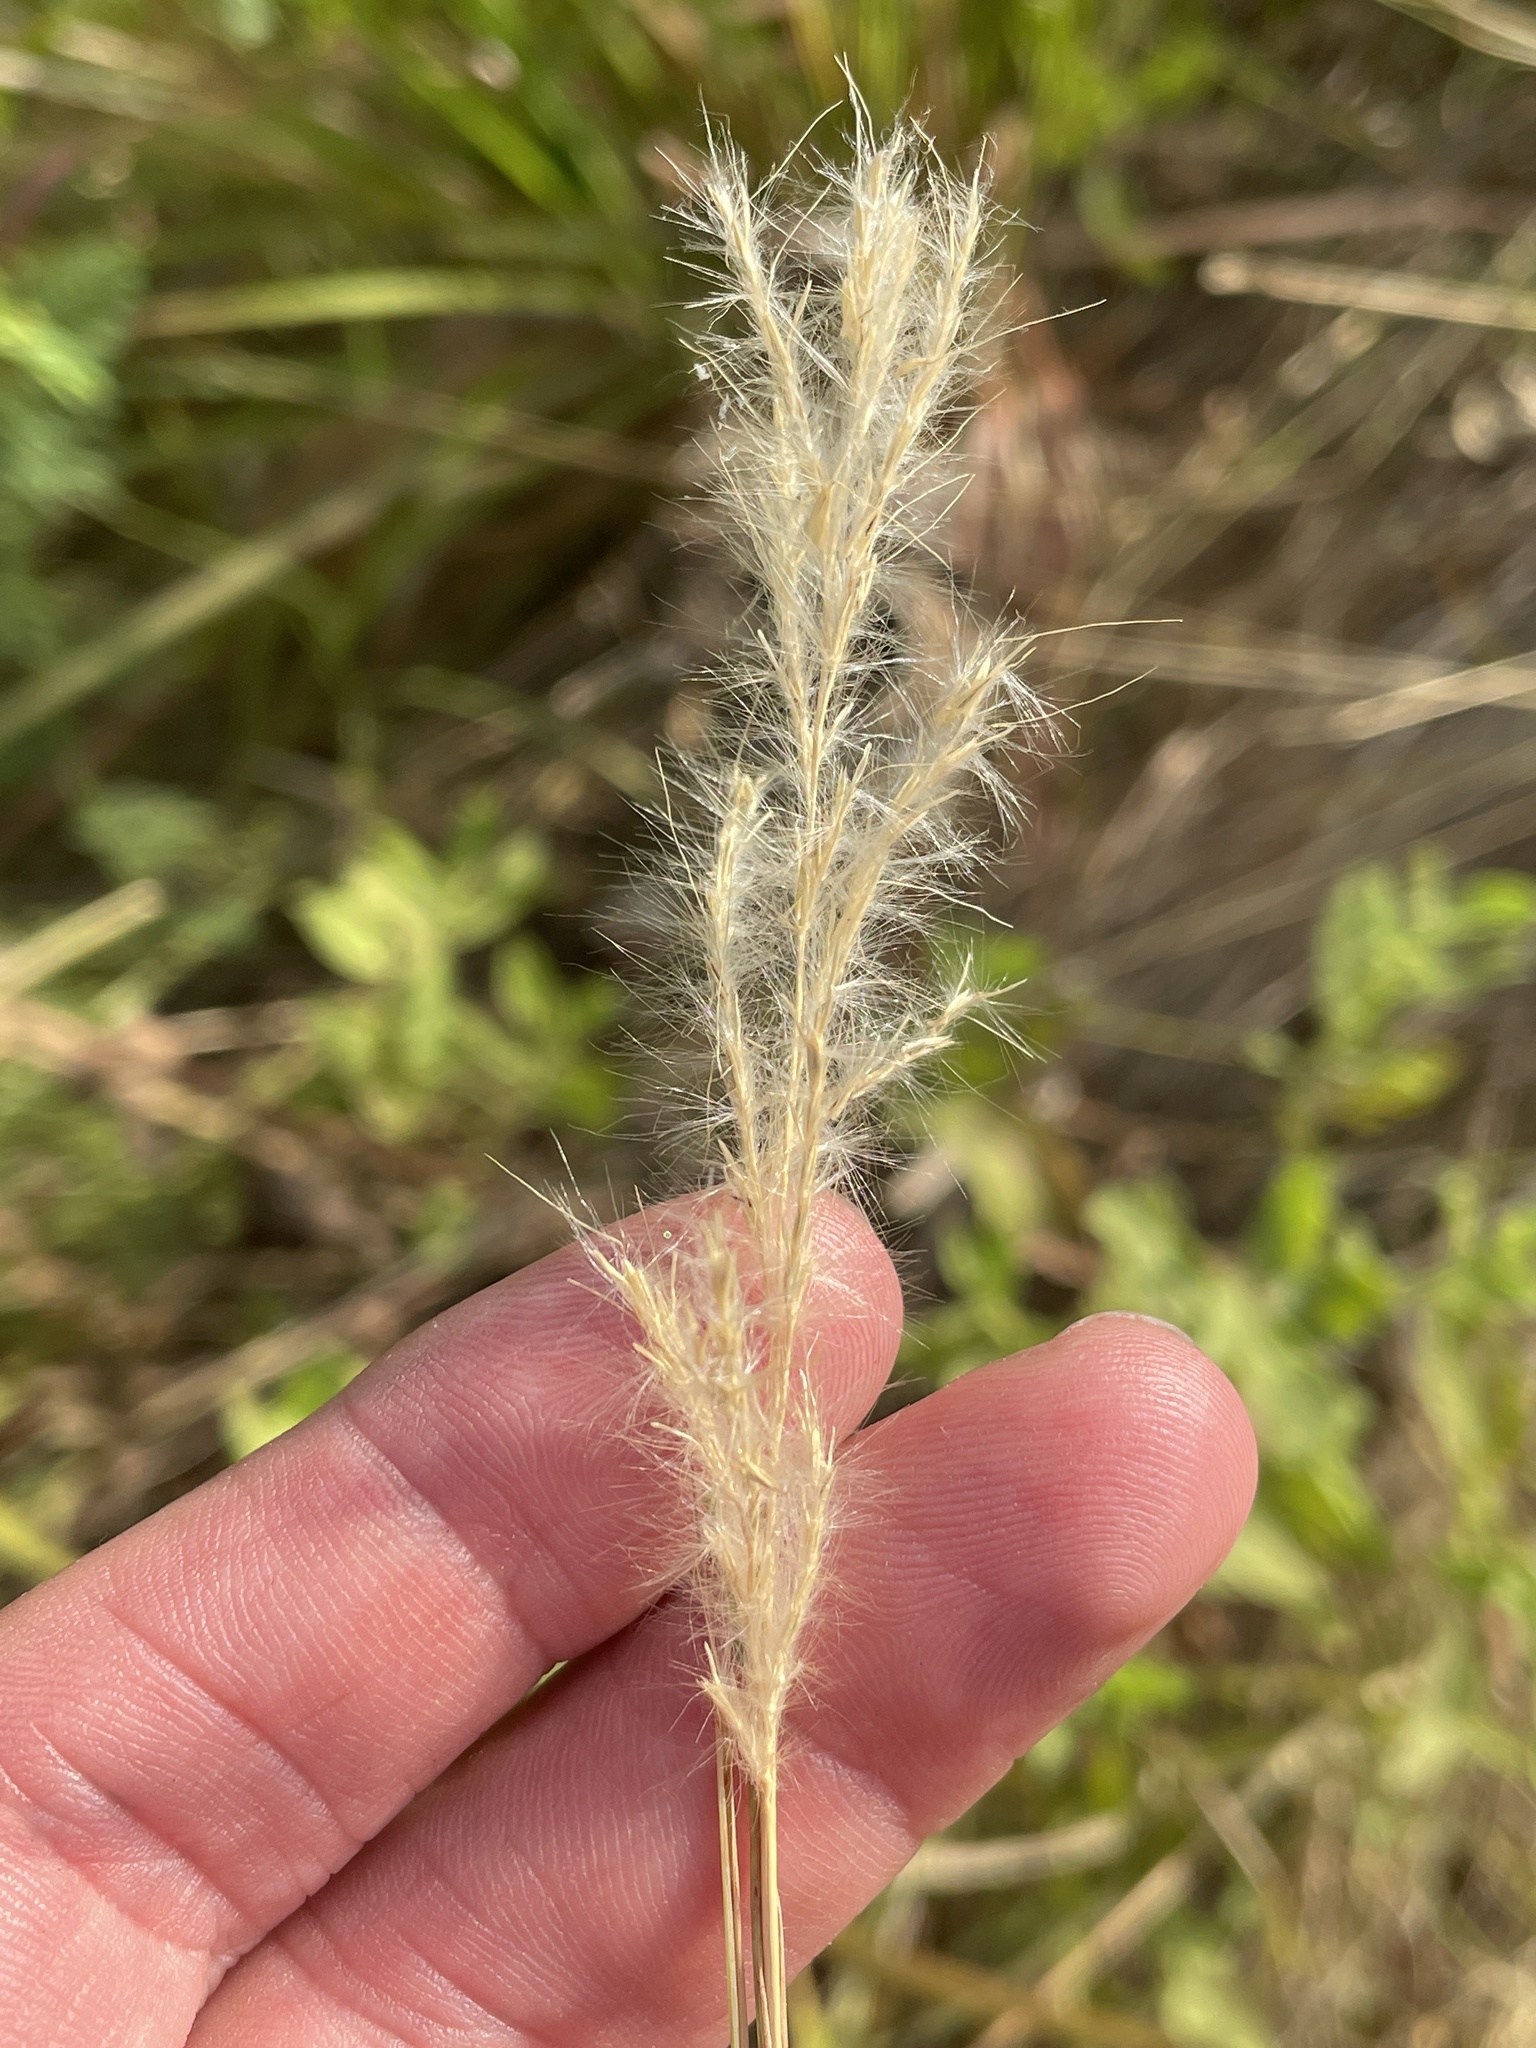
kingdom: Plantae
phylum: Tracheophyta
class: Liliopsida
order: Poales
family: Poaceae
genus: Bothriochloa
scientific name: Bothriochloa torreyana
